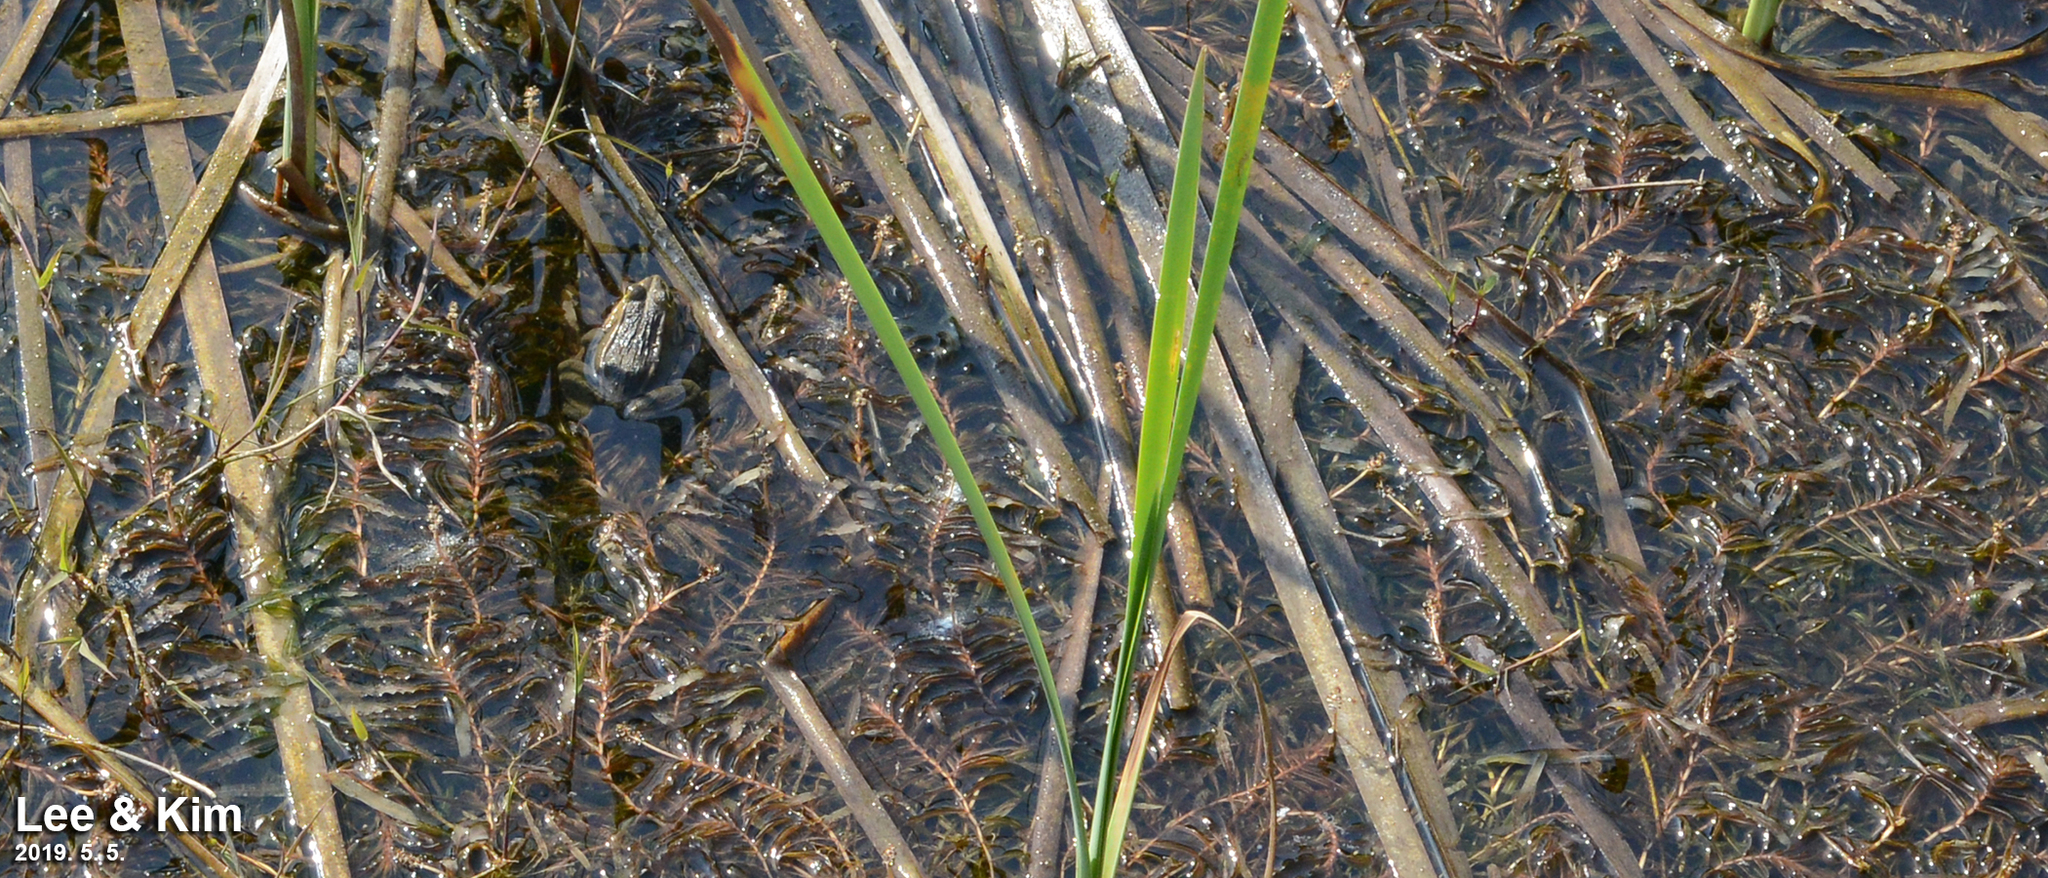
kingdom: Animalia
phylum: Chordata
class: Amphibia
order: Anura
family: Ranidae
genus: Pelophylax
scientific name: Pelophylax nigromaculatus
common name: Black-spotted pond frog
